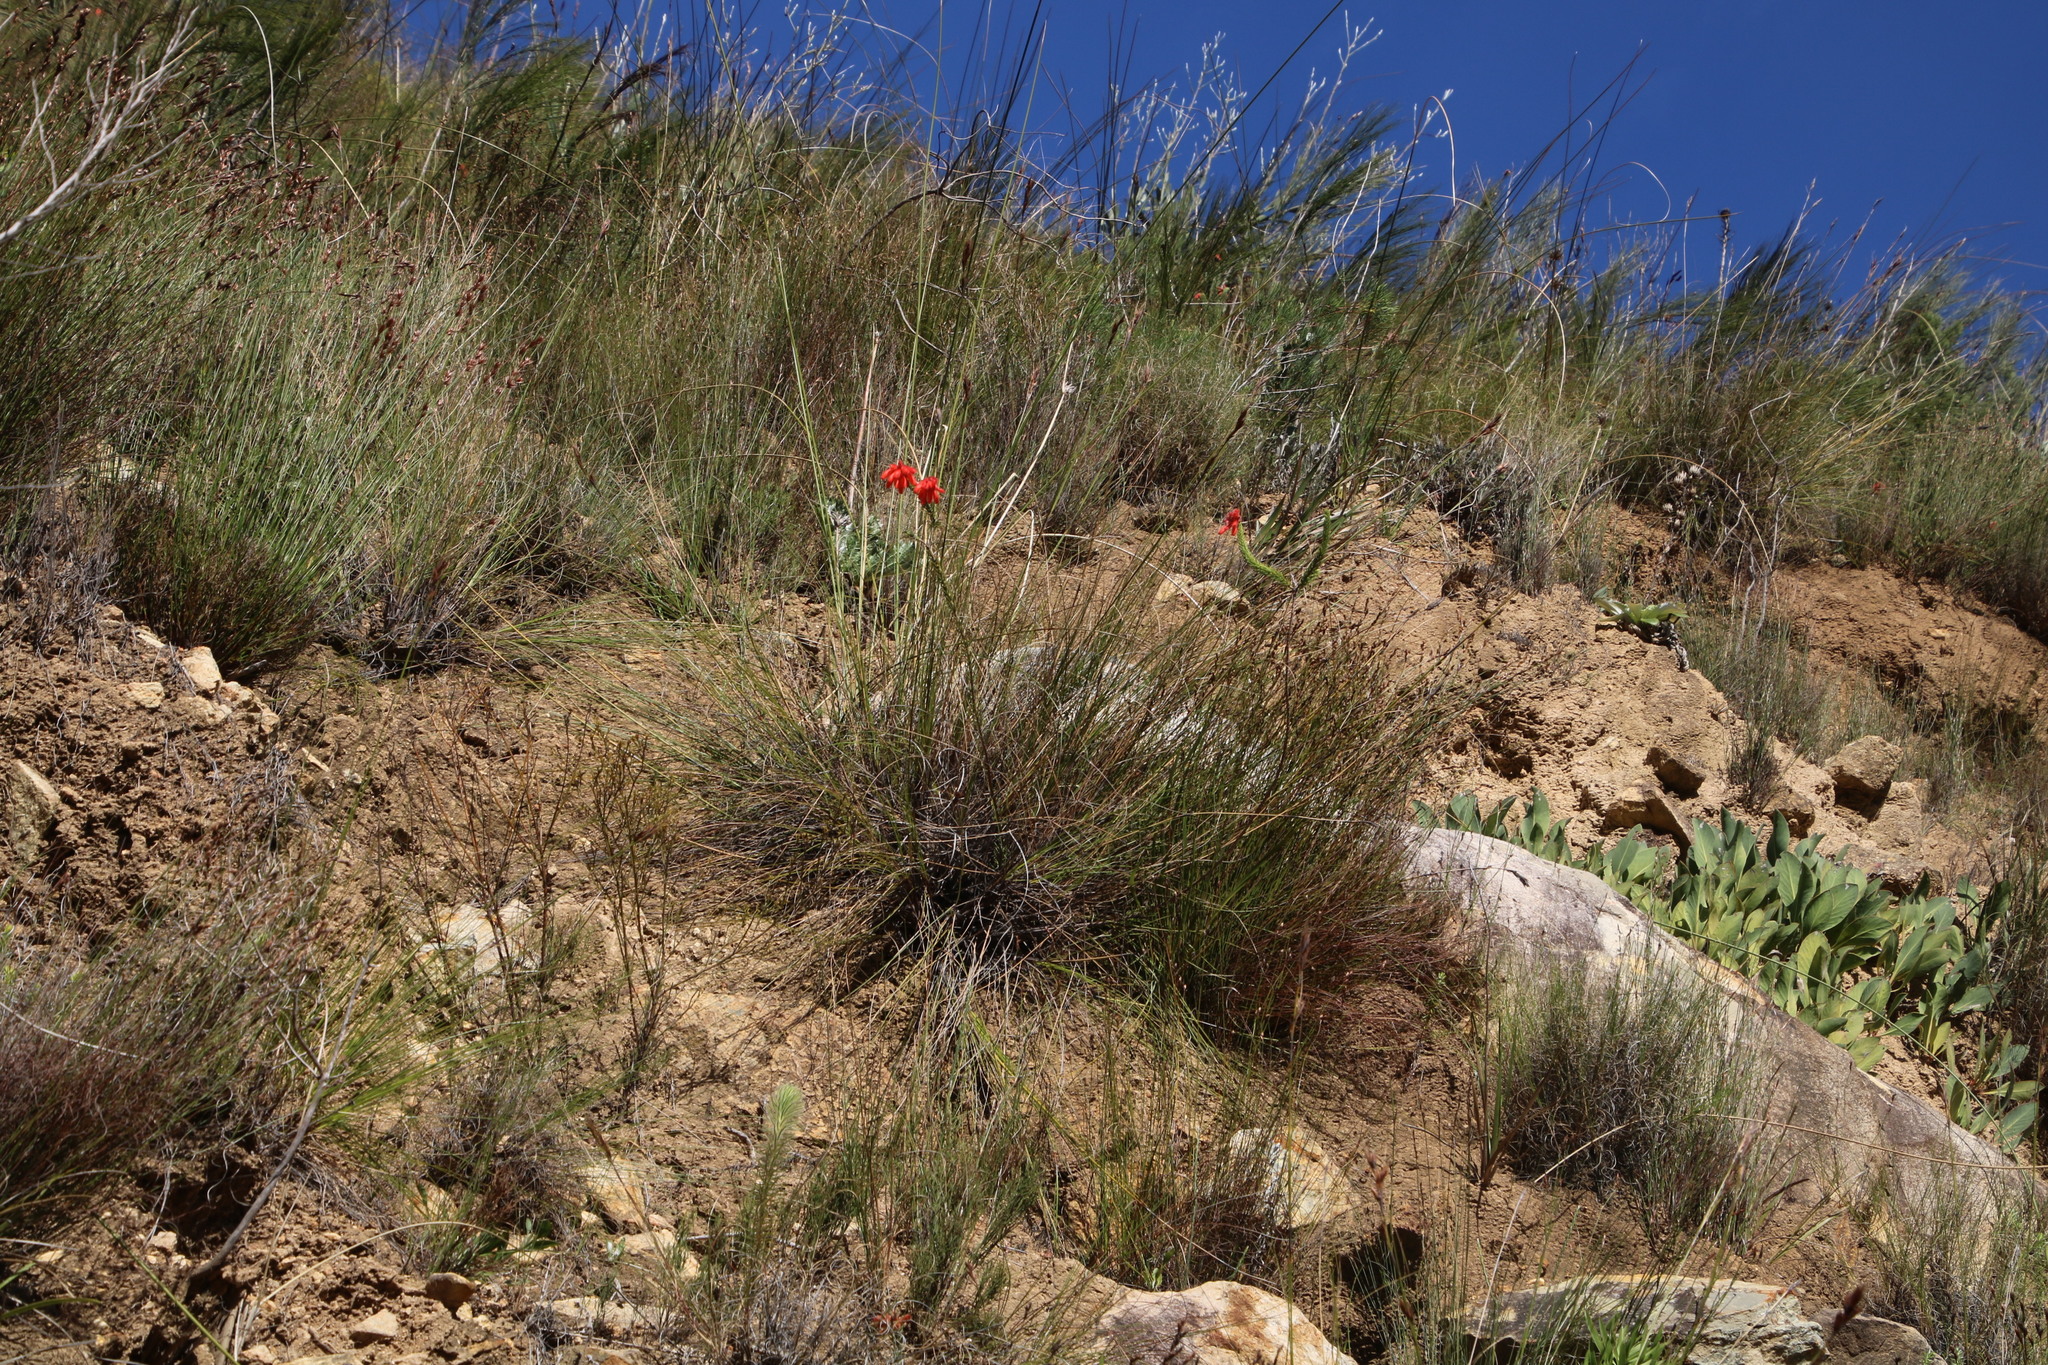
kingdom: Plantae
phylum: Tracheophyta
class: Magnoliopsida
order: Ericales
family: Ericaceae
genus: Erica
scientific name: Erica cerinthoides
